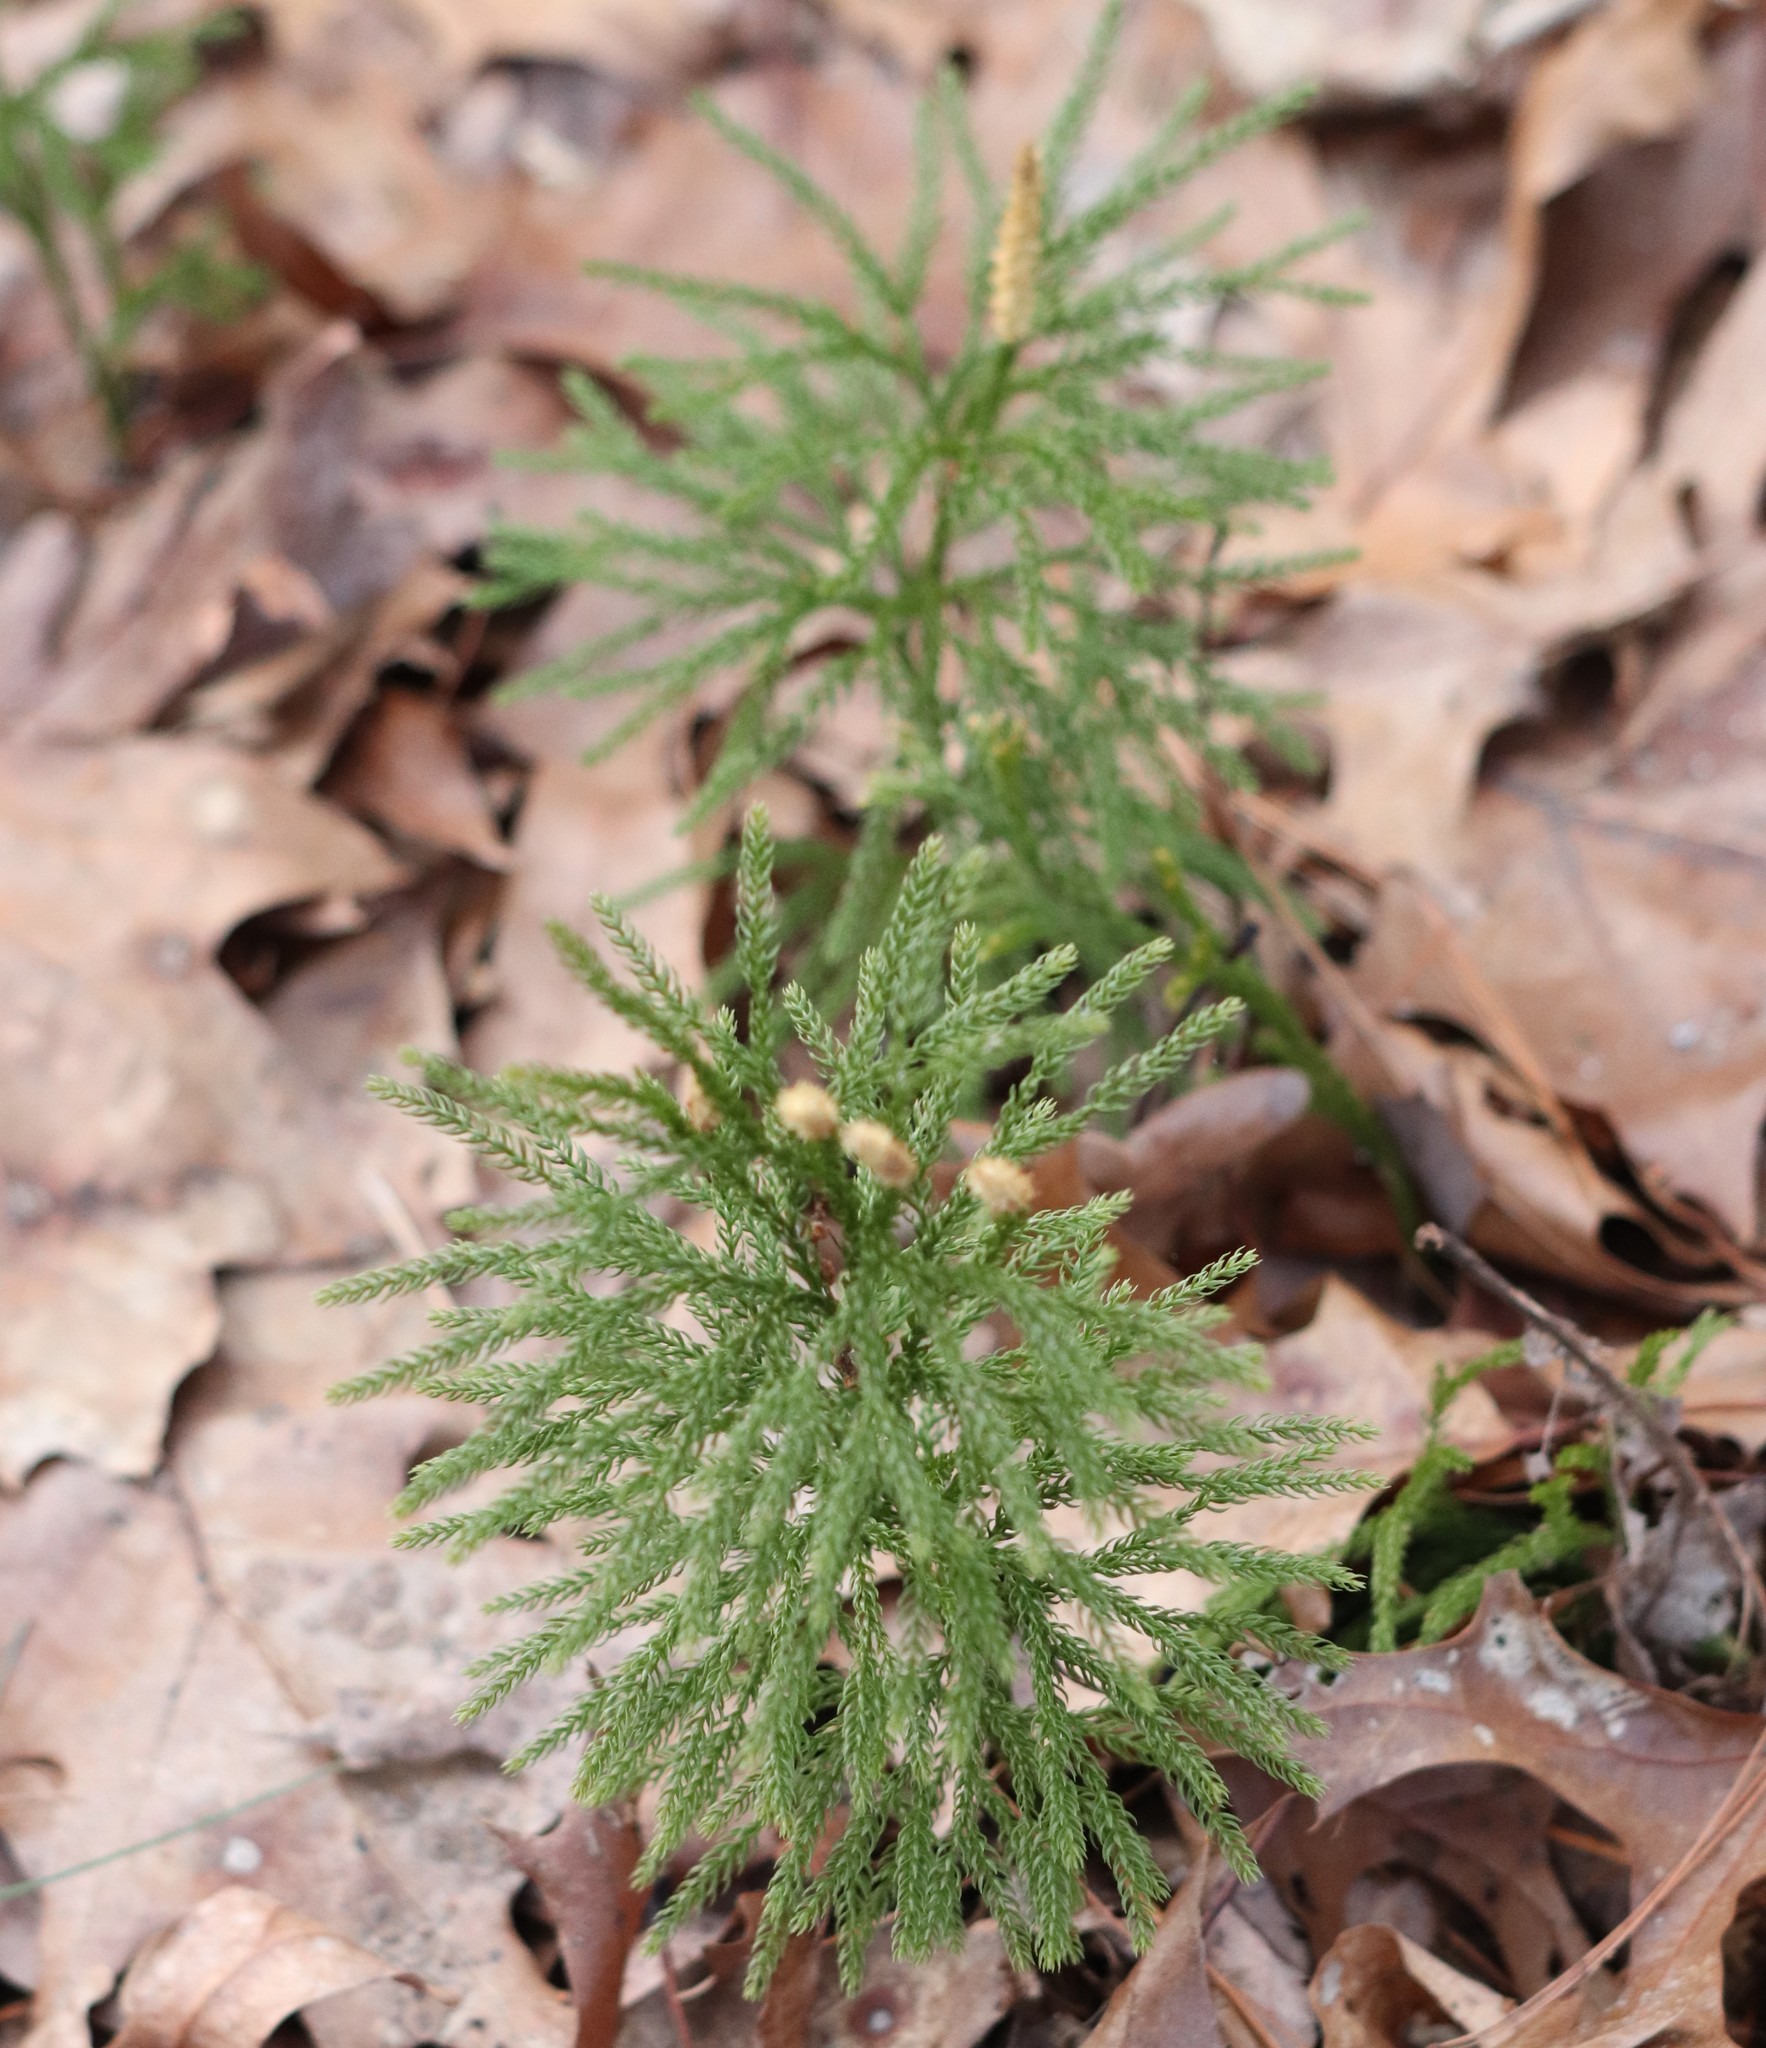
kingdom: Plantae
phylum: Tracheophyta
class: Lycopodiopsida
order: Lycopodiales
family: Lycopodiaceae
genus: Dendrolycopodium
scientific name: Dendrolycopodium hickeyi
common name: Hickey's clubmoss
